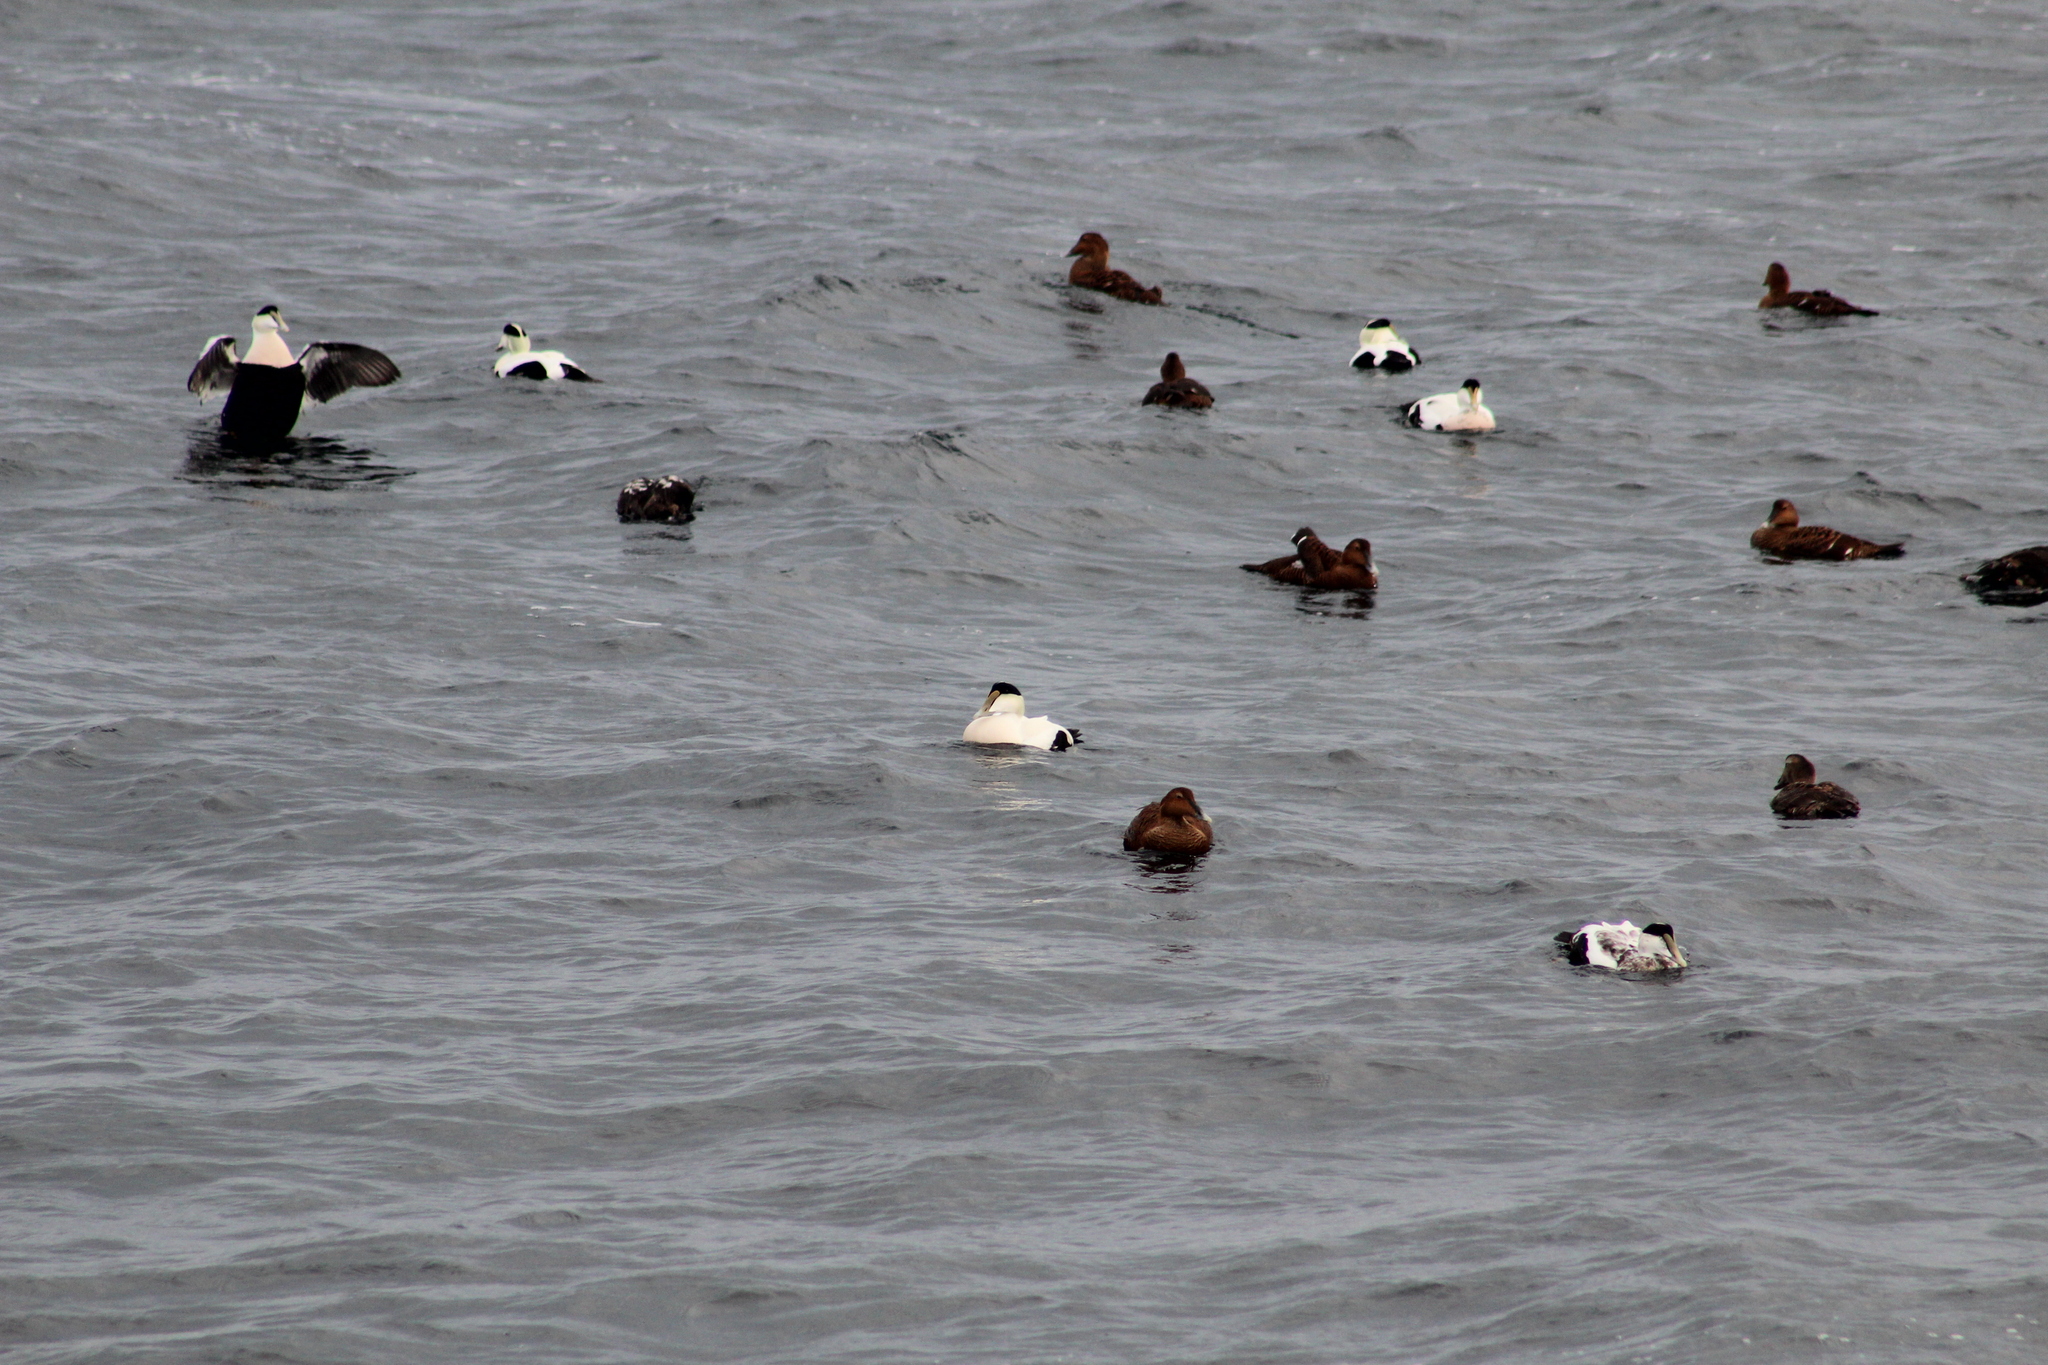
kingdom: Animalia
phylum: Chordata
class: Aves
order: Anseriformes
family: Anatidae
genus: Somateria
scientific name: Somateria mollissima
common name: Common eider
